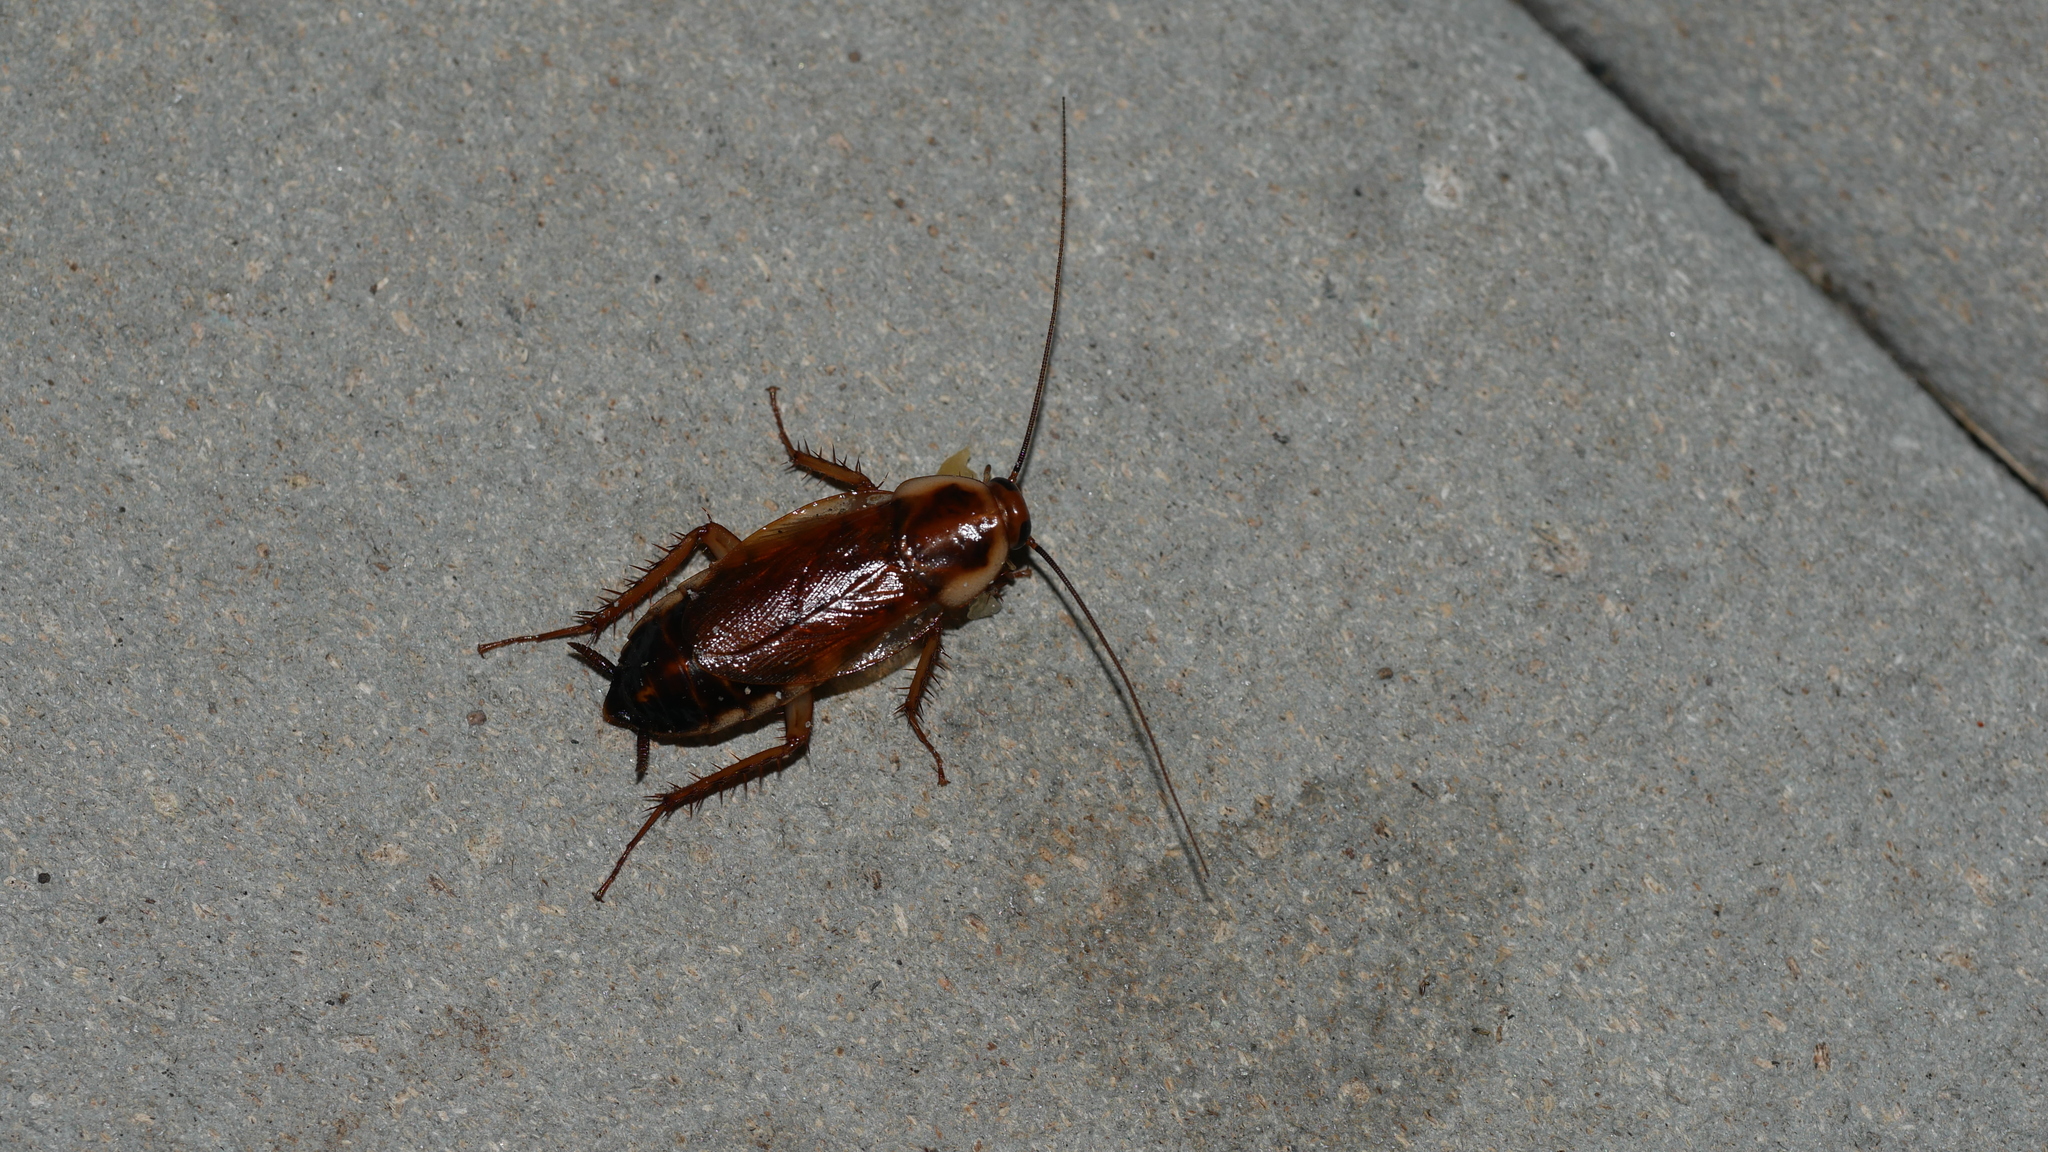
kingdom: Animalia
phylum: Arthropoda
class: Insecta
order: Blattodea
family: Ectobiidae
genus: Parcoblatta
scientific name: Parcoblatta
